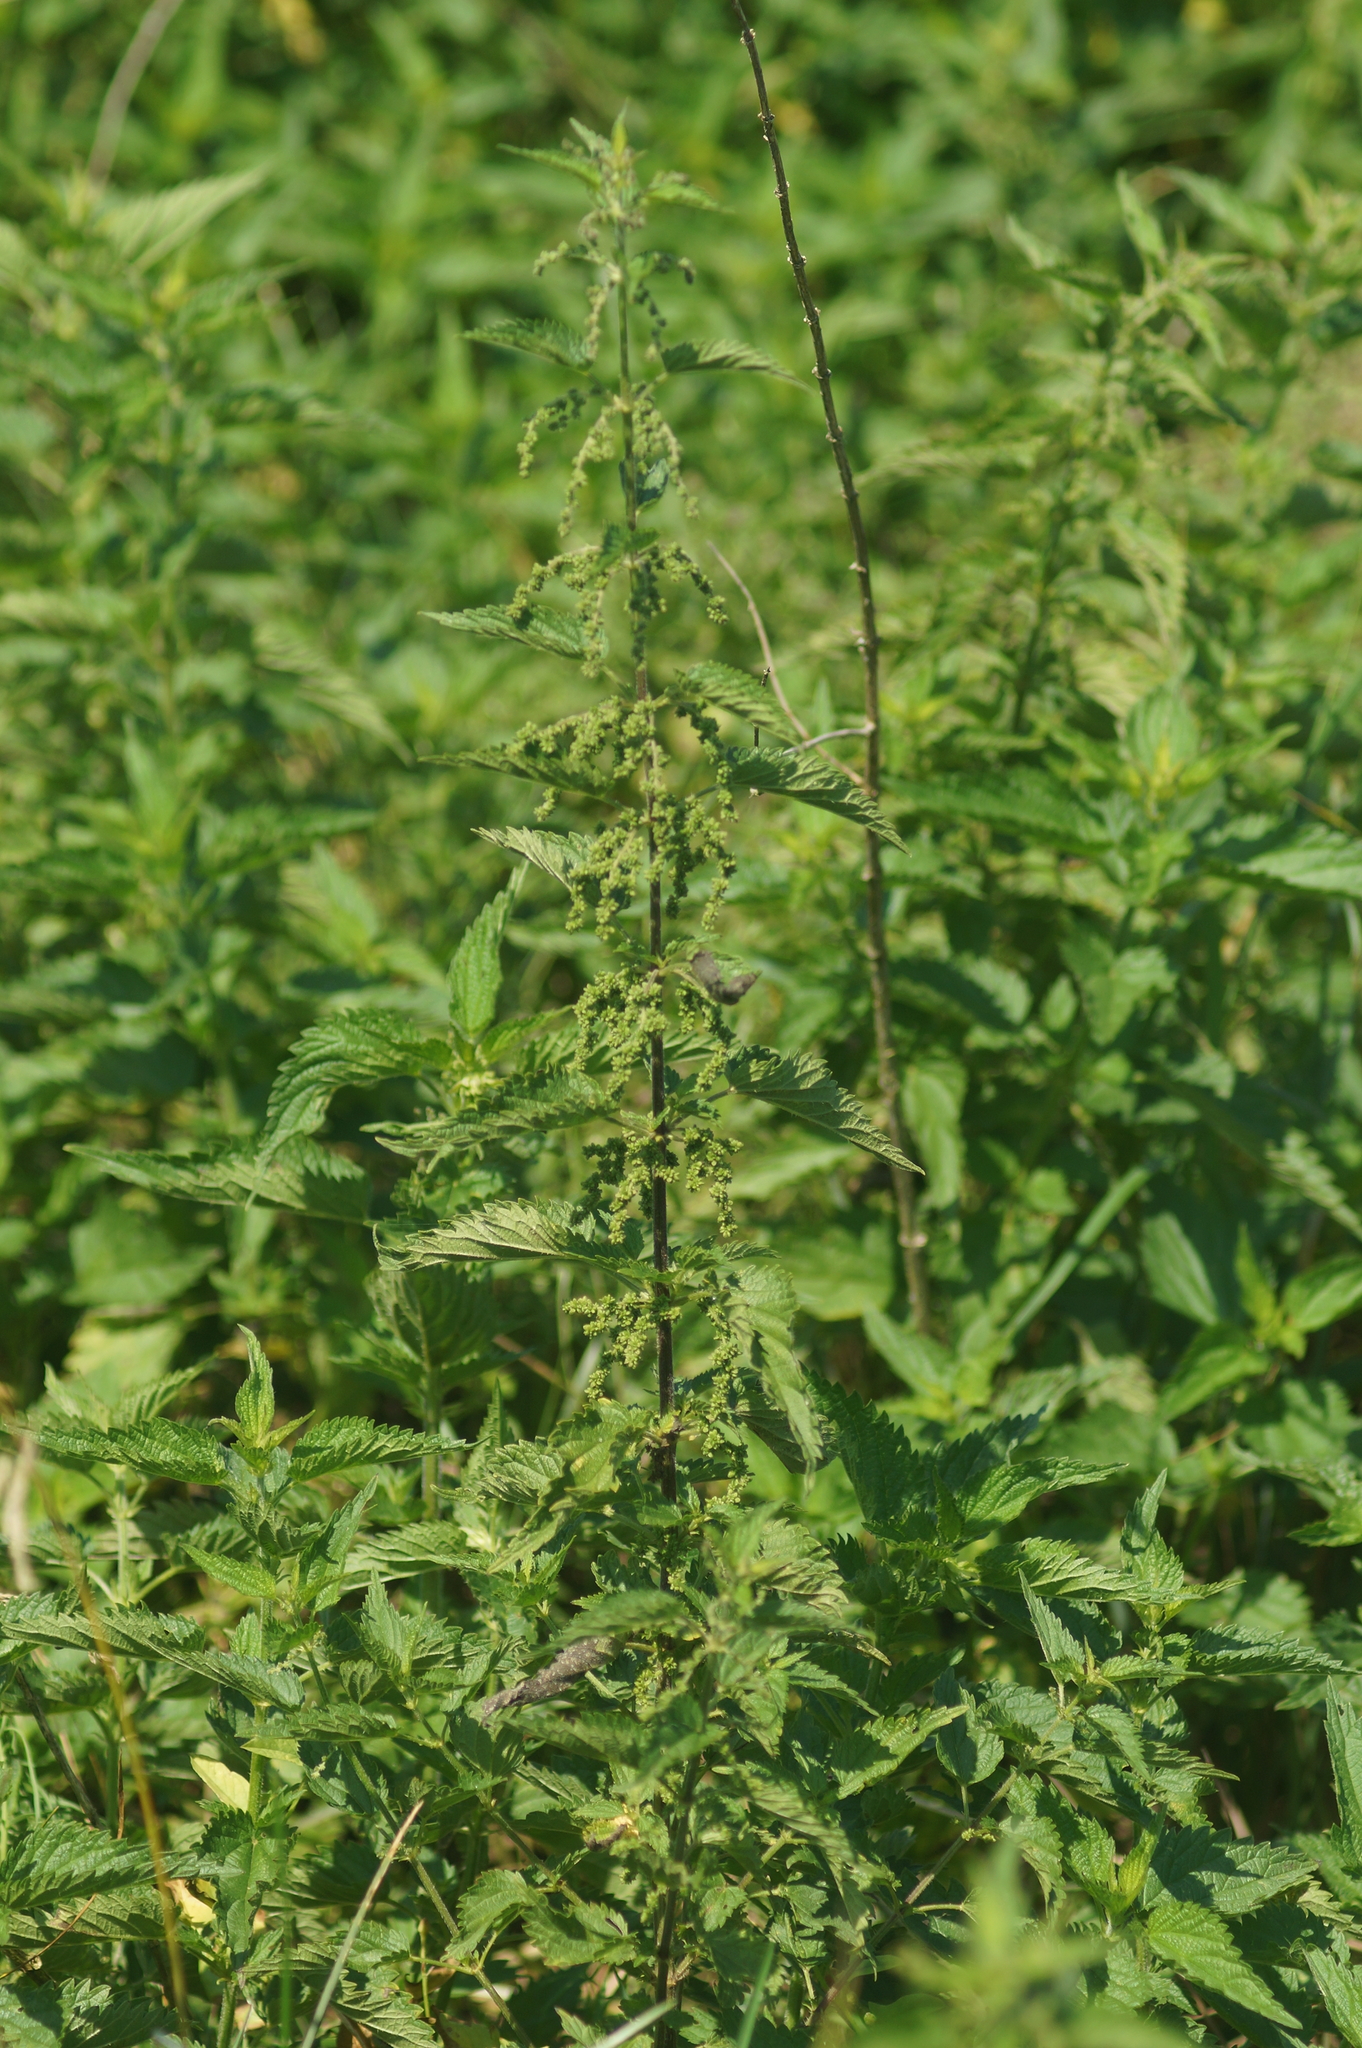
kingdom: Plantae
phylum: Tracheophyta
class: Magnoliopsida
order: Rosales
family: Urticaceae
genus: Urtica
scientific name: Urtica dioica
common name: Common nettle
